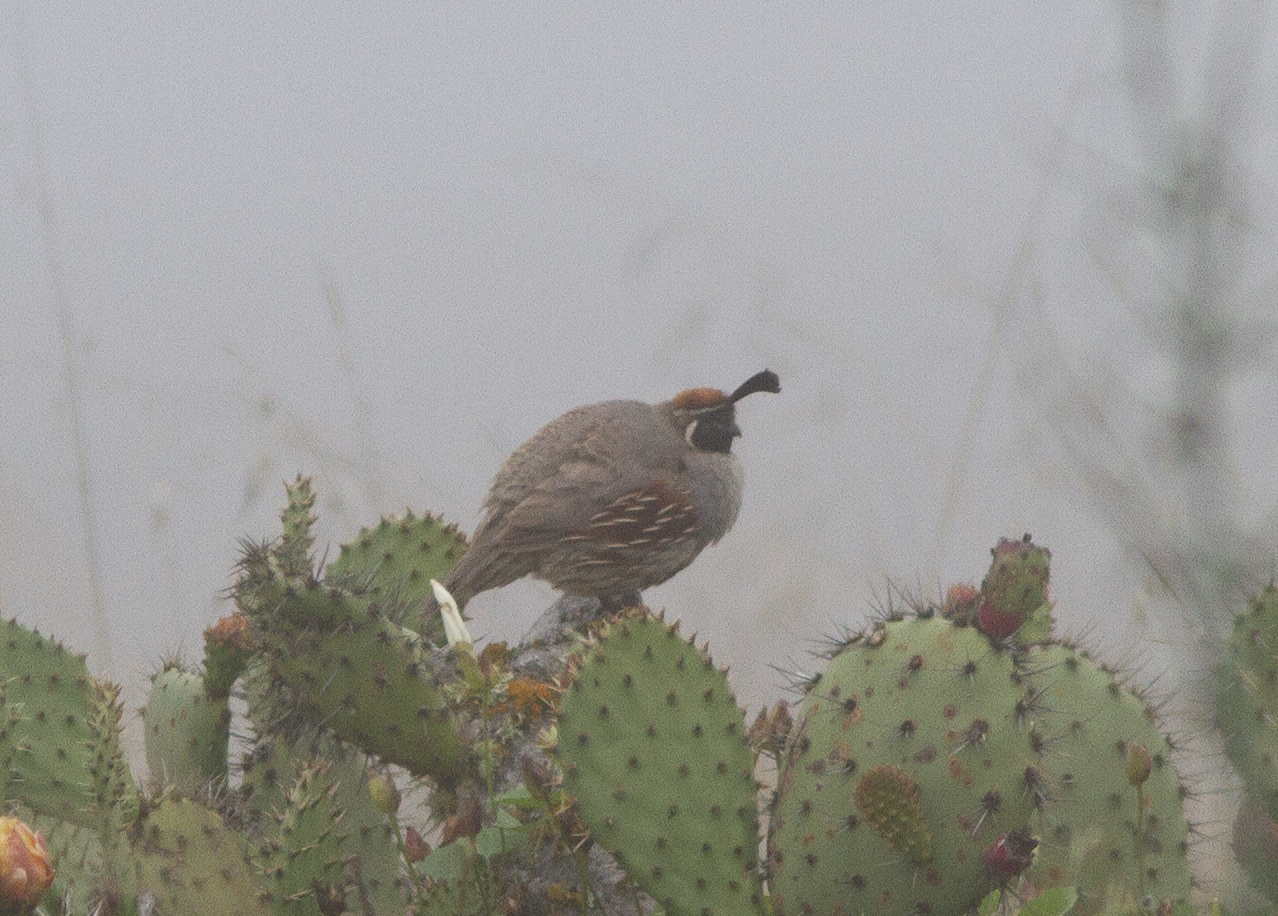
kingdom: Animalia
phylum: Chordata
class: Aves
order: Galliformes
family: Odontophoridae
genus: Callipepla
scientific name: Callipepla gambelii
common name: Gambel's quail
